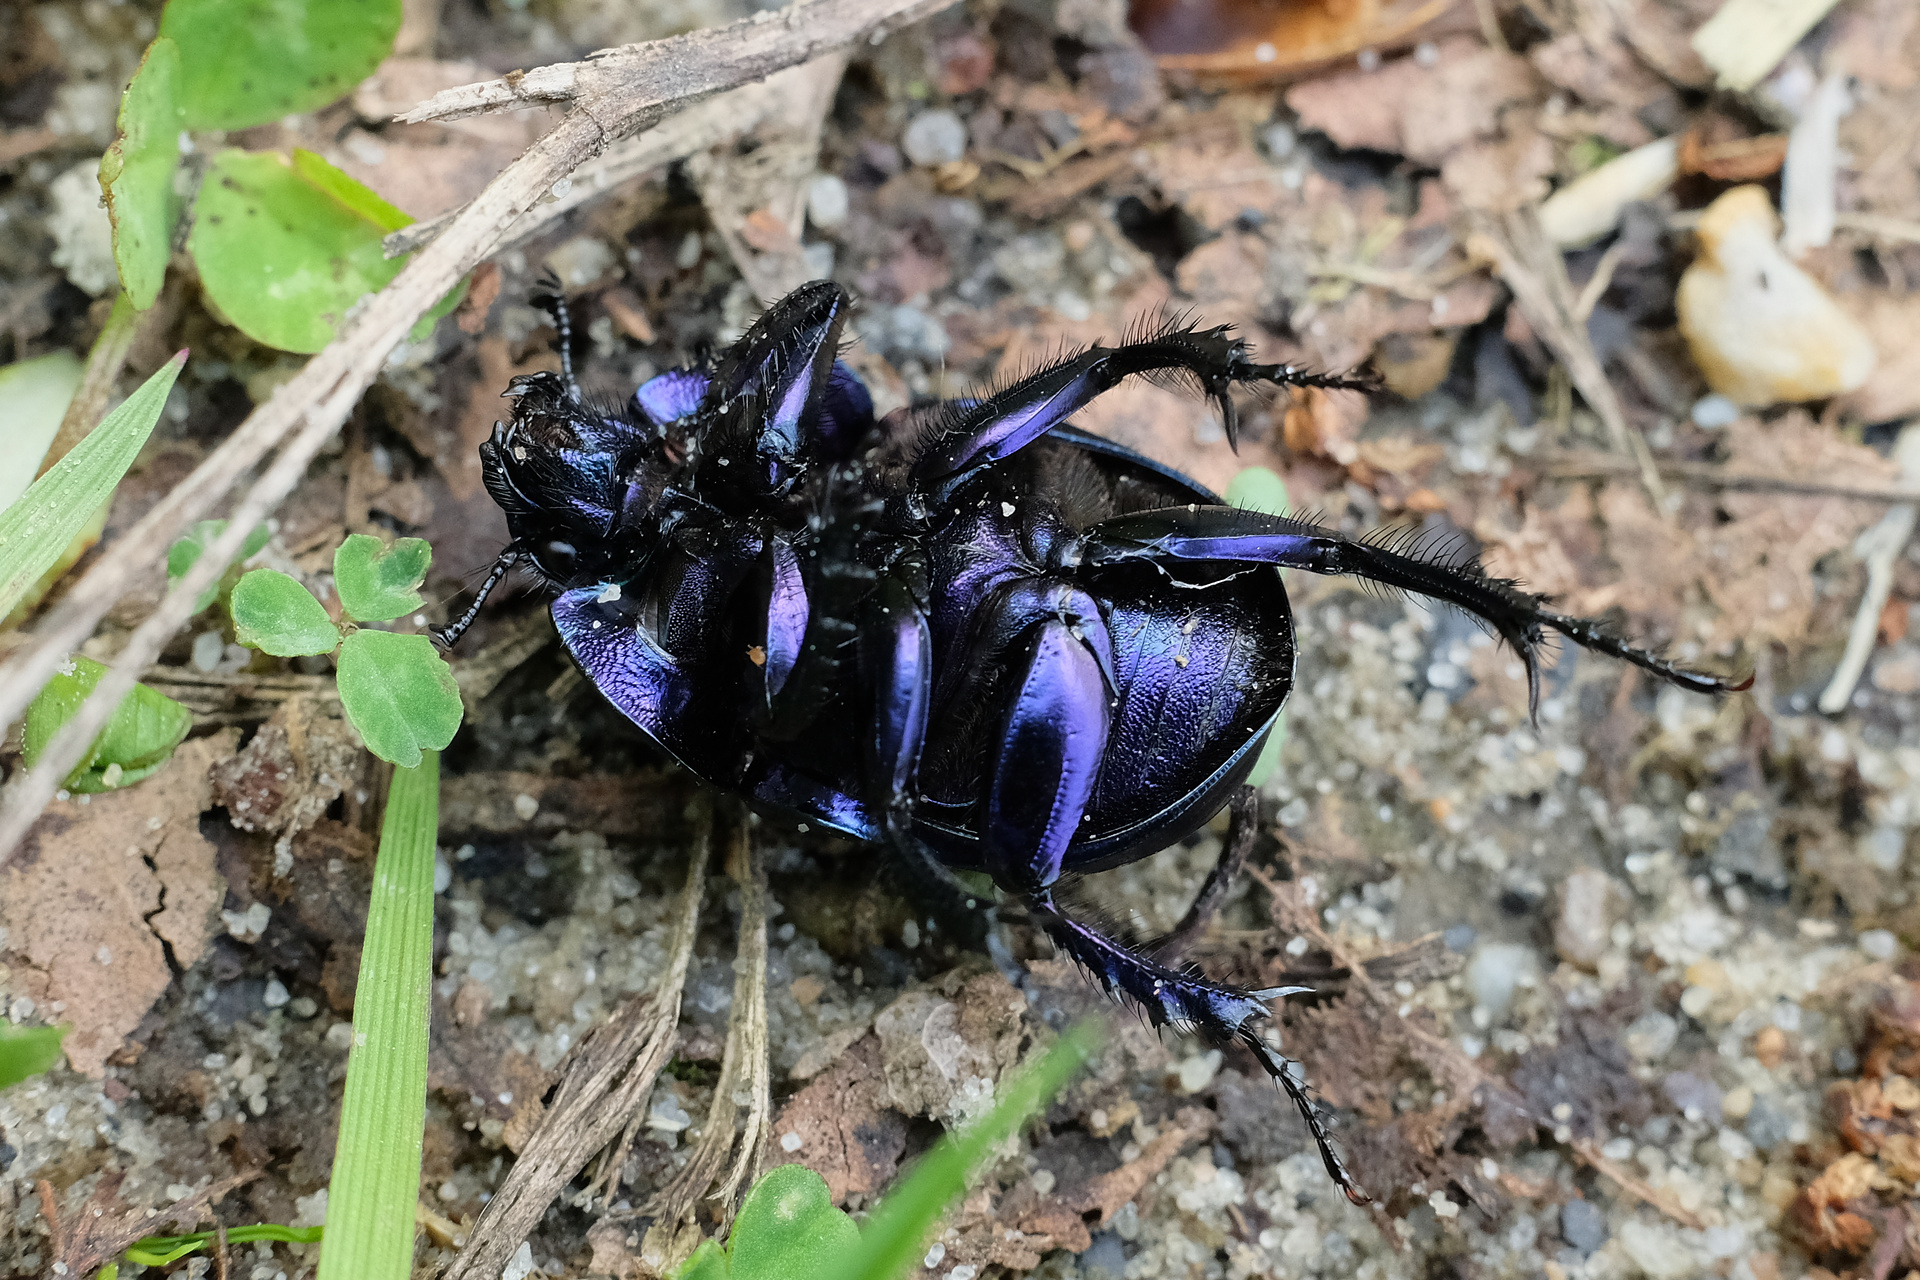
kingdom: Animalia
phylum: Arthropoda
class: Insecta
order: Coleoptera
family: Geotrupidae
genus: Trypocopris
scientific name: Trypocopris vernalis
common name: Spring dumbledor
